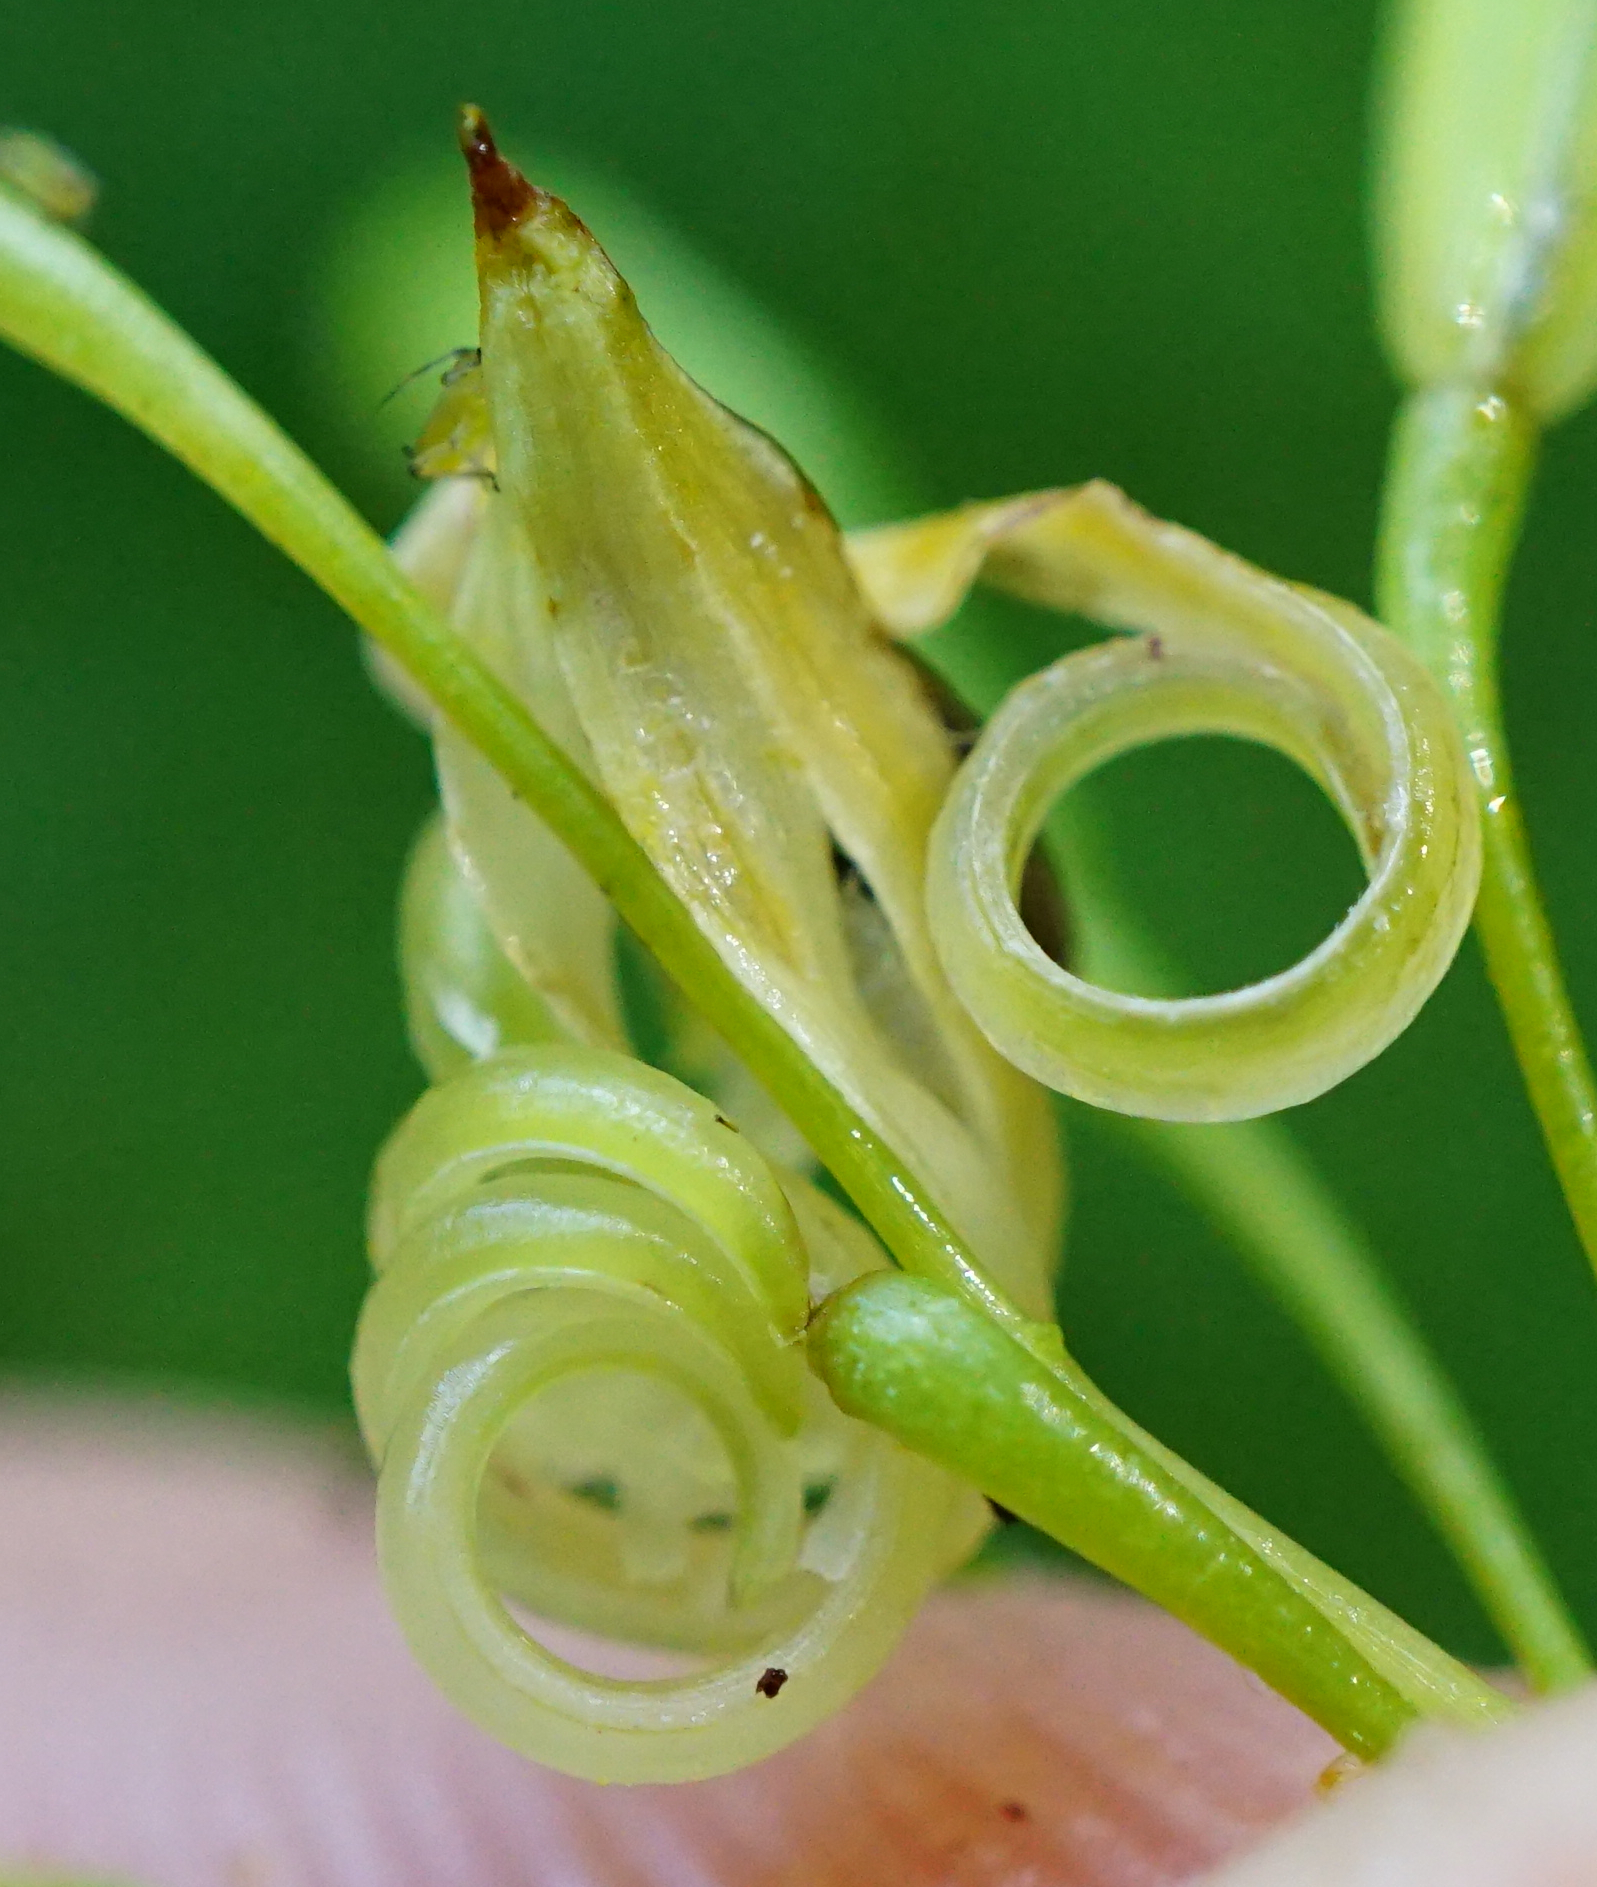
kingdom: Plantae
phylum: Tracheophyta
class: Magnoliopsida
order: Ericales
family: Balsaminaceae
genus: Impatiens
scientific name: Impatiens parviflora
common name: Small balsam
